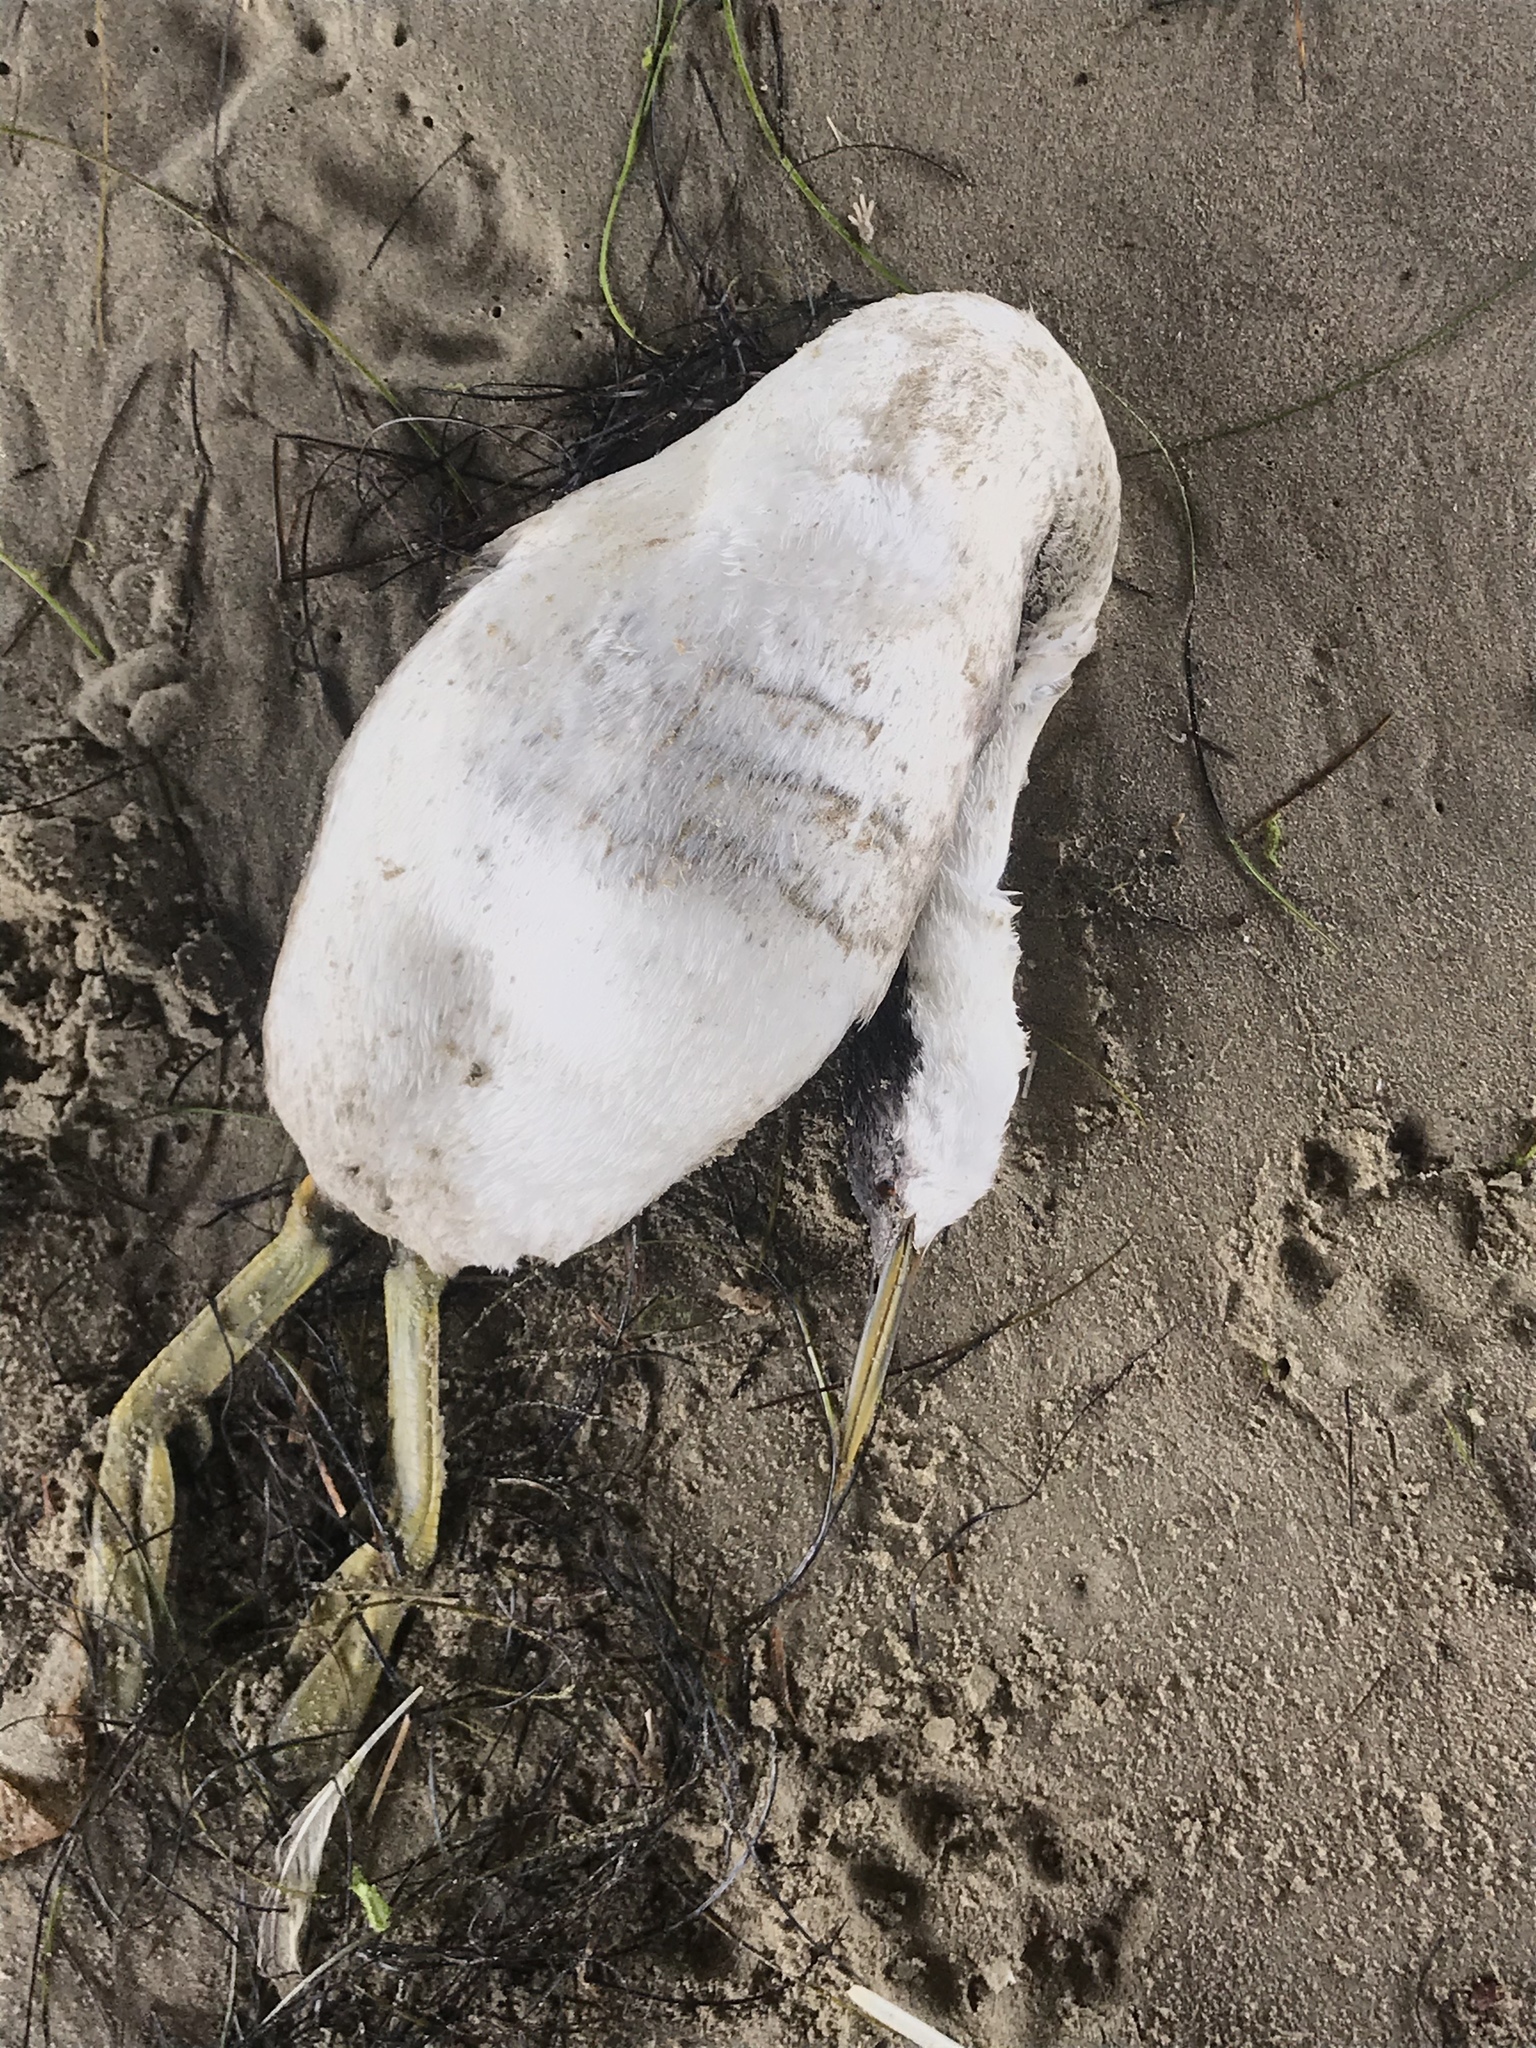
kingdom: Animalia
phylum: Chordata
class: Aves
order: Podicipediformes
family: Podicipedidae
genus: Aechmophorus
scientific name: Aechmophorus occidentalis
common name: Western grebe
